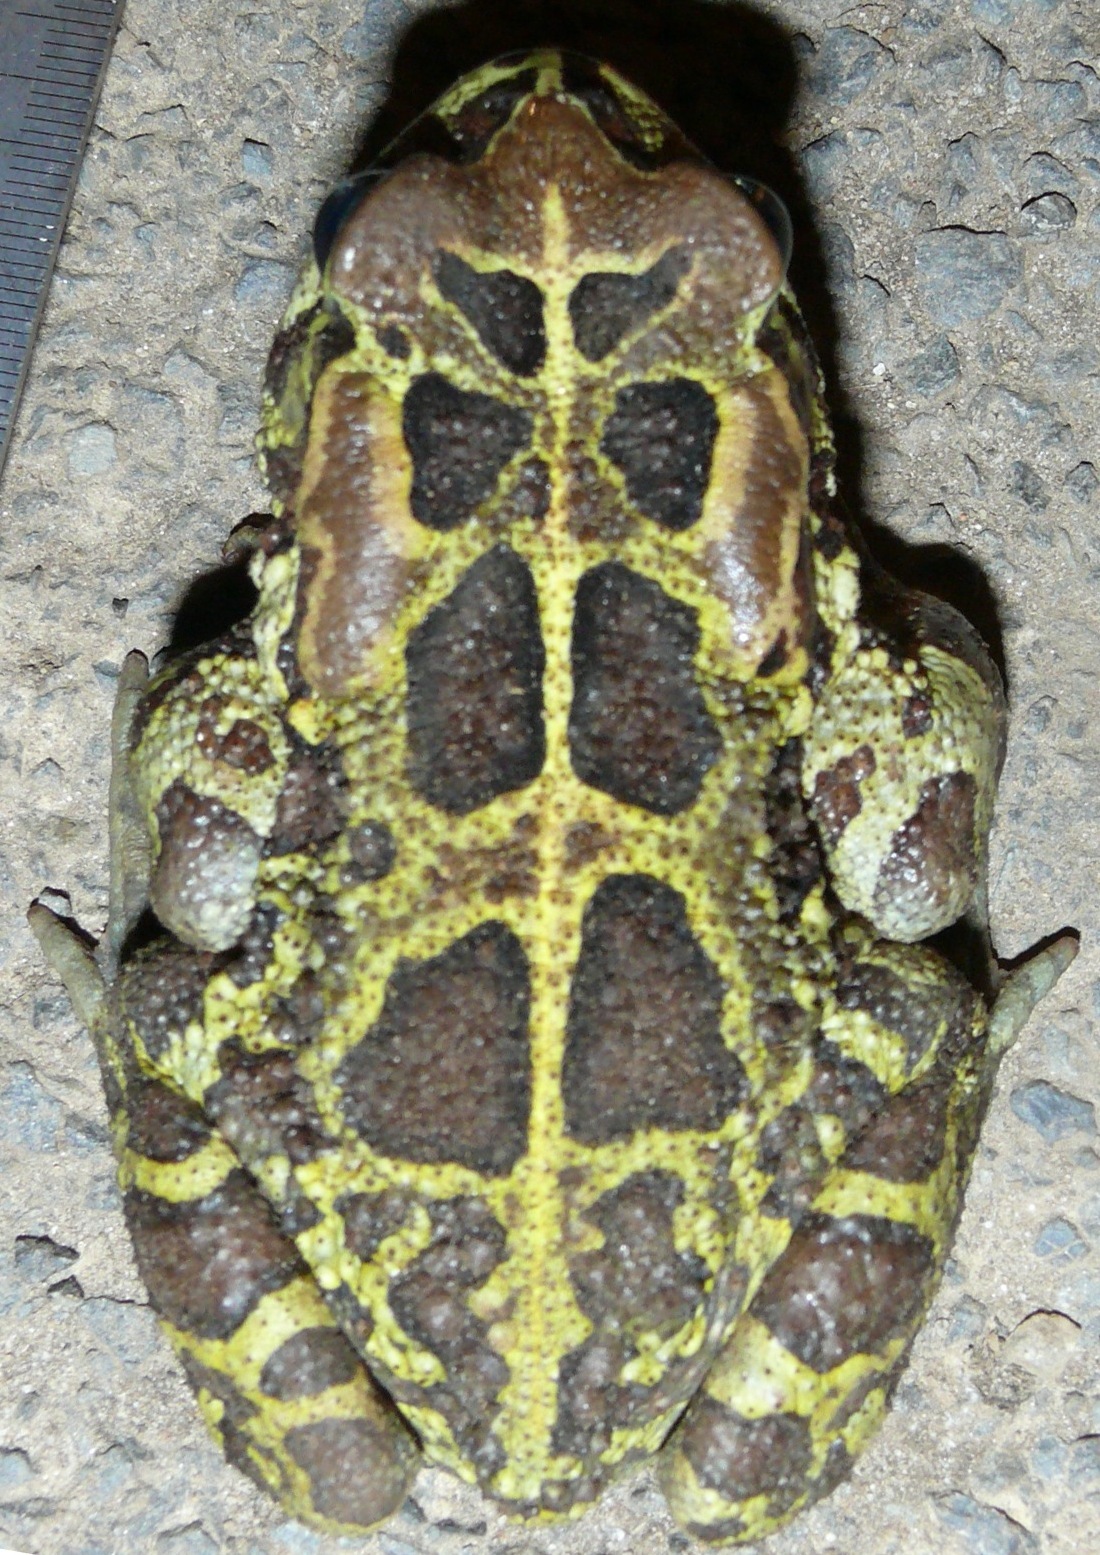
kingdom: Animalia
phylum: Chordata
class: Amphibia
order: Anura
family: Bufonidae
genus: Sclerophrys
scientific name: Sclerophrys pantherina
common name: Panther toad
